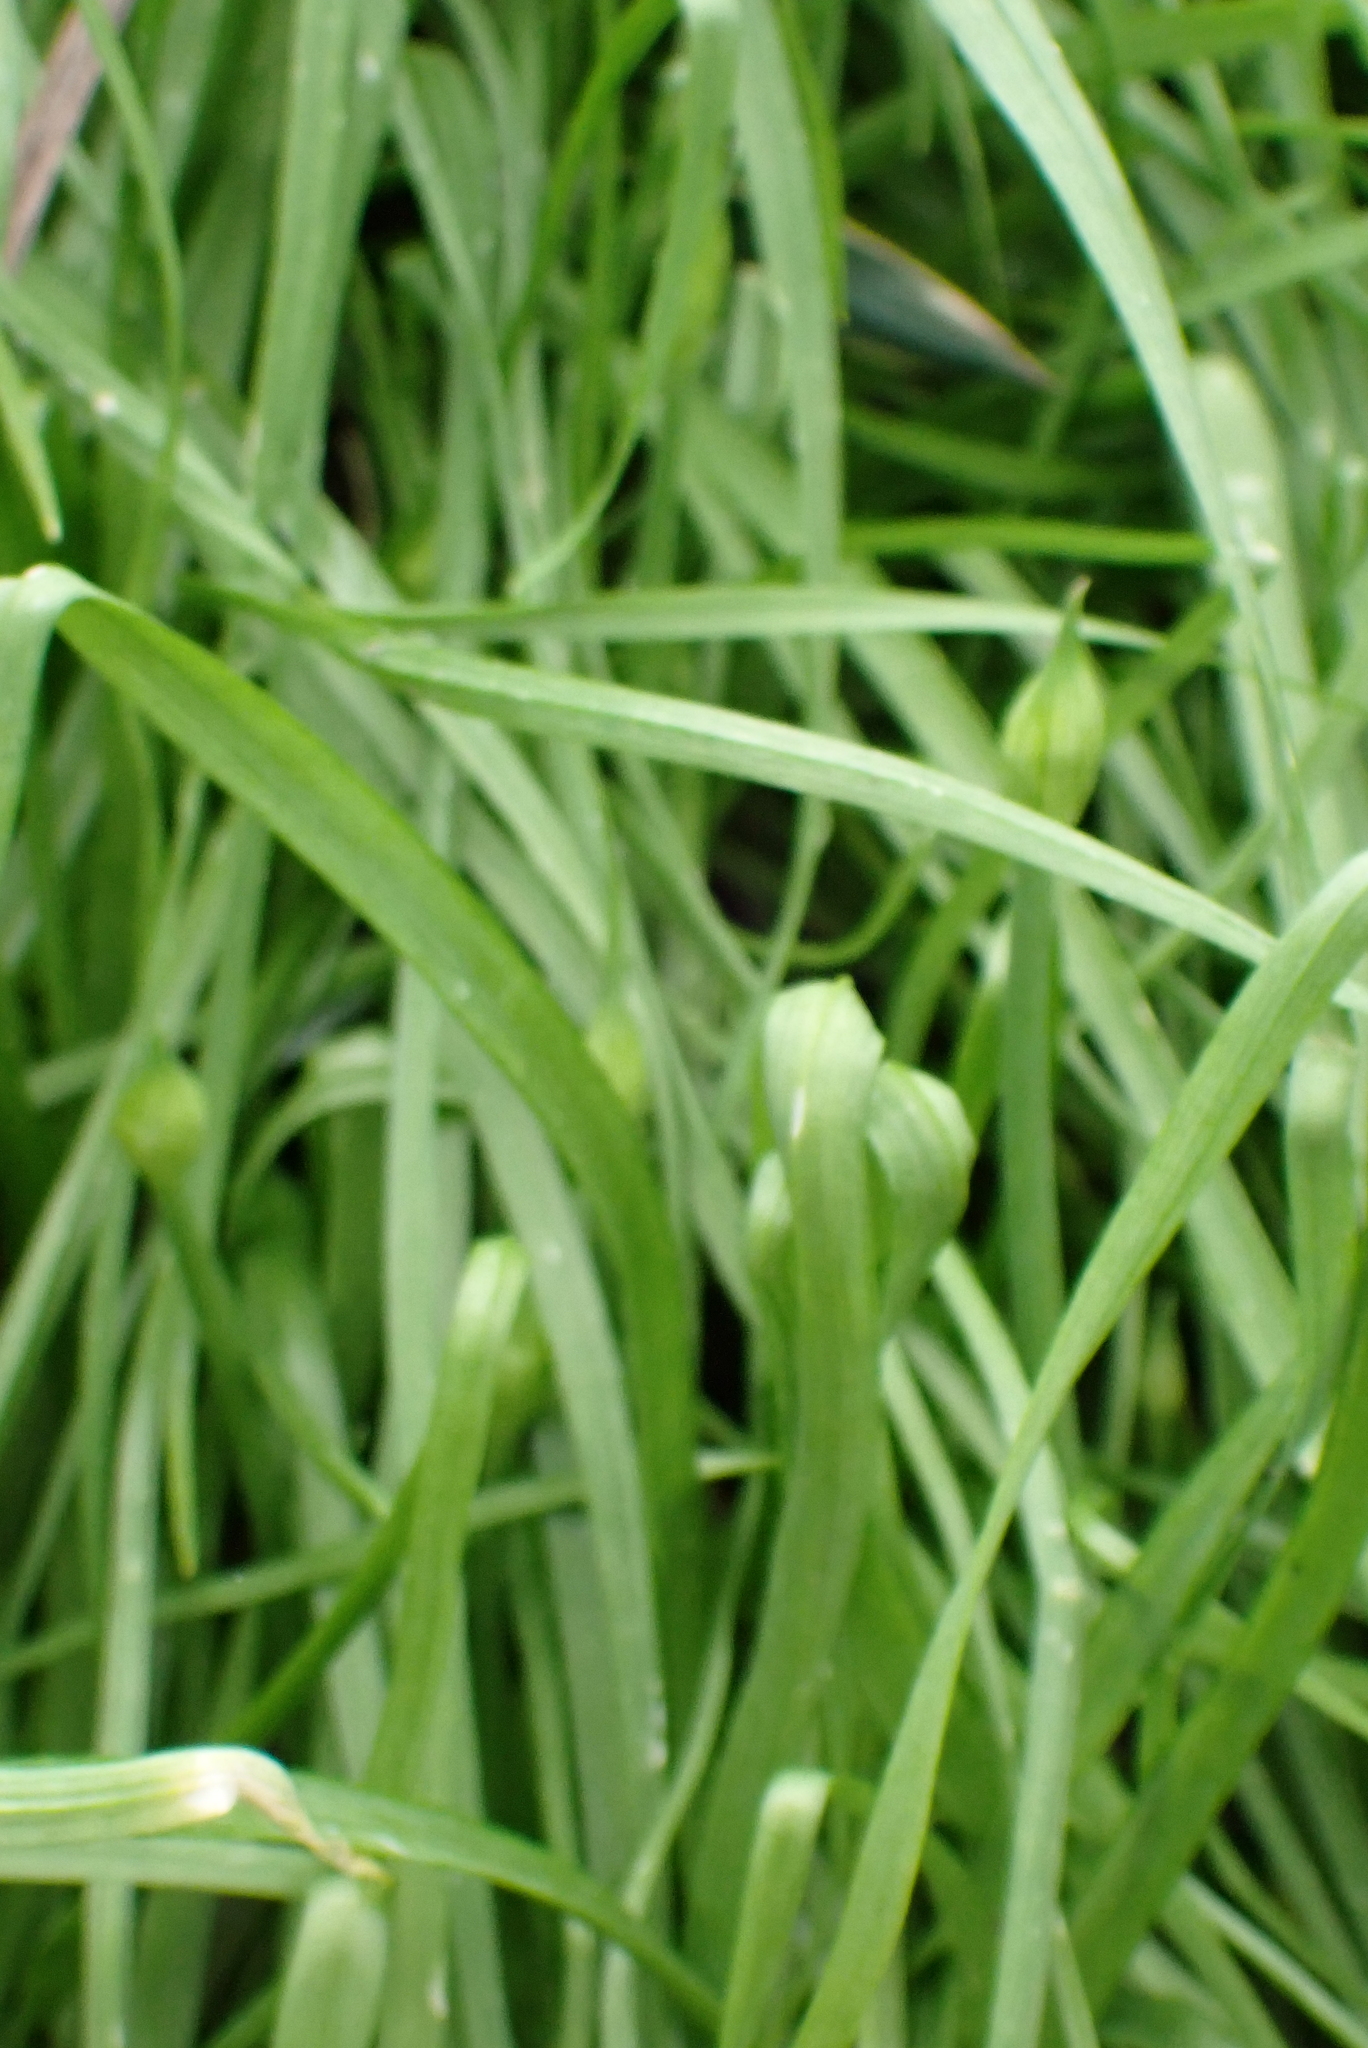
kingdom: Plantae
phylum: Tracheophyta
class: Liliopsida
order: Asparagales
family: Amaryllidaceae
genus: Allium
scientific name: Allium paradoxum
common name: Few-flowered garlic
